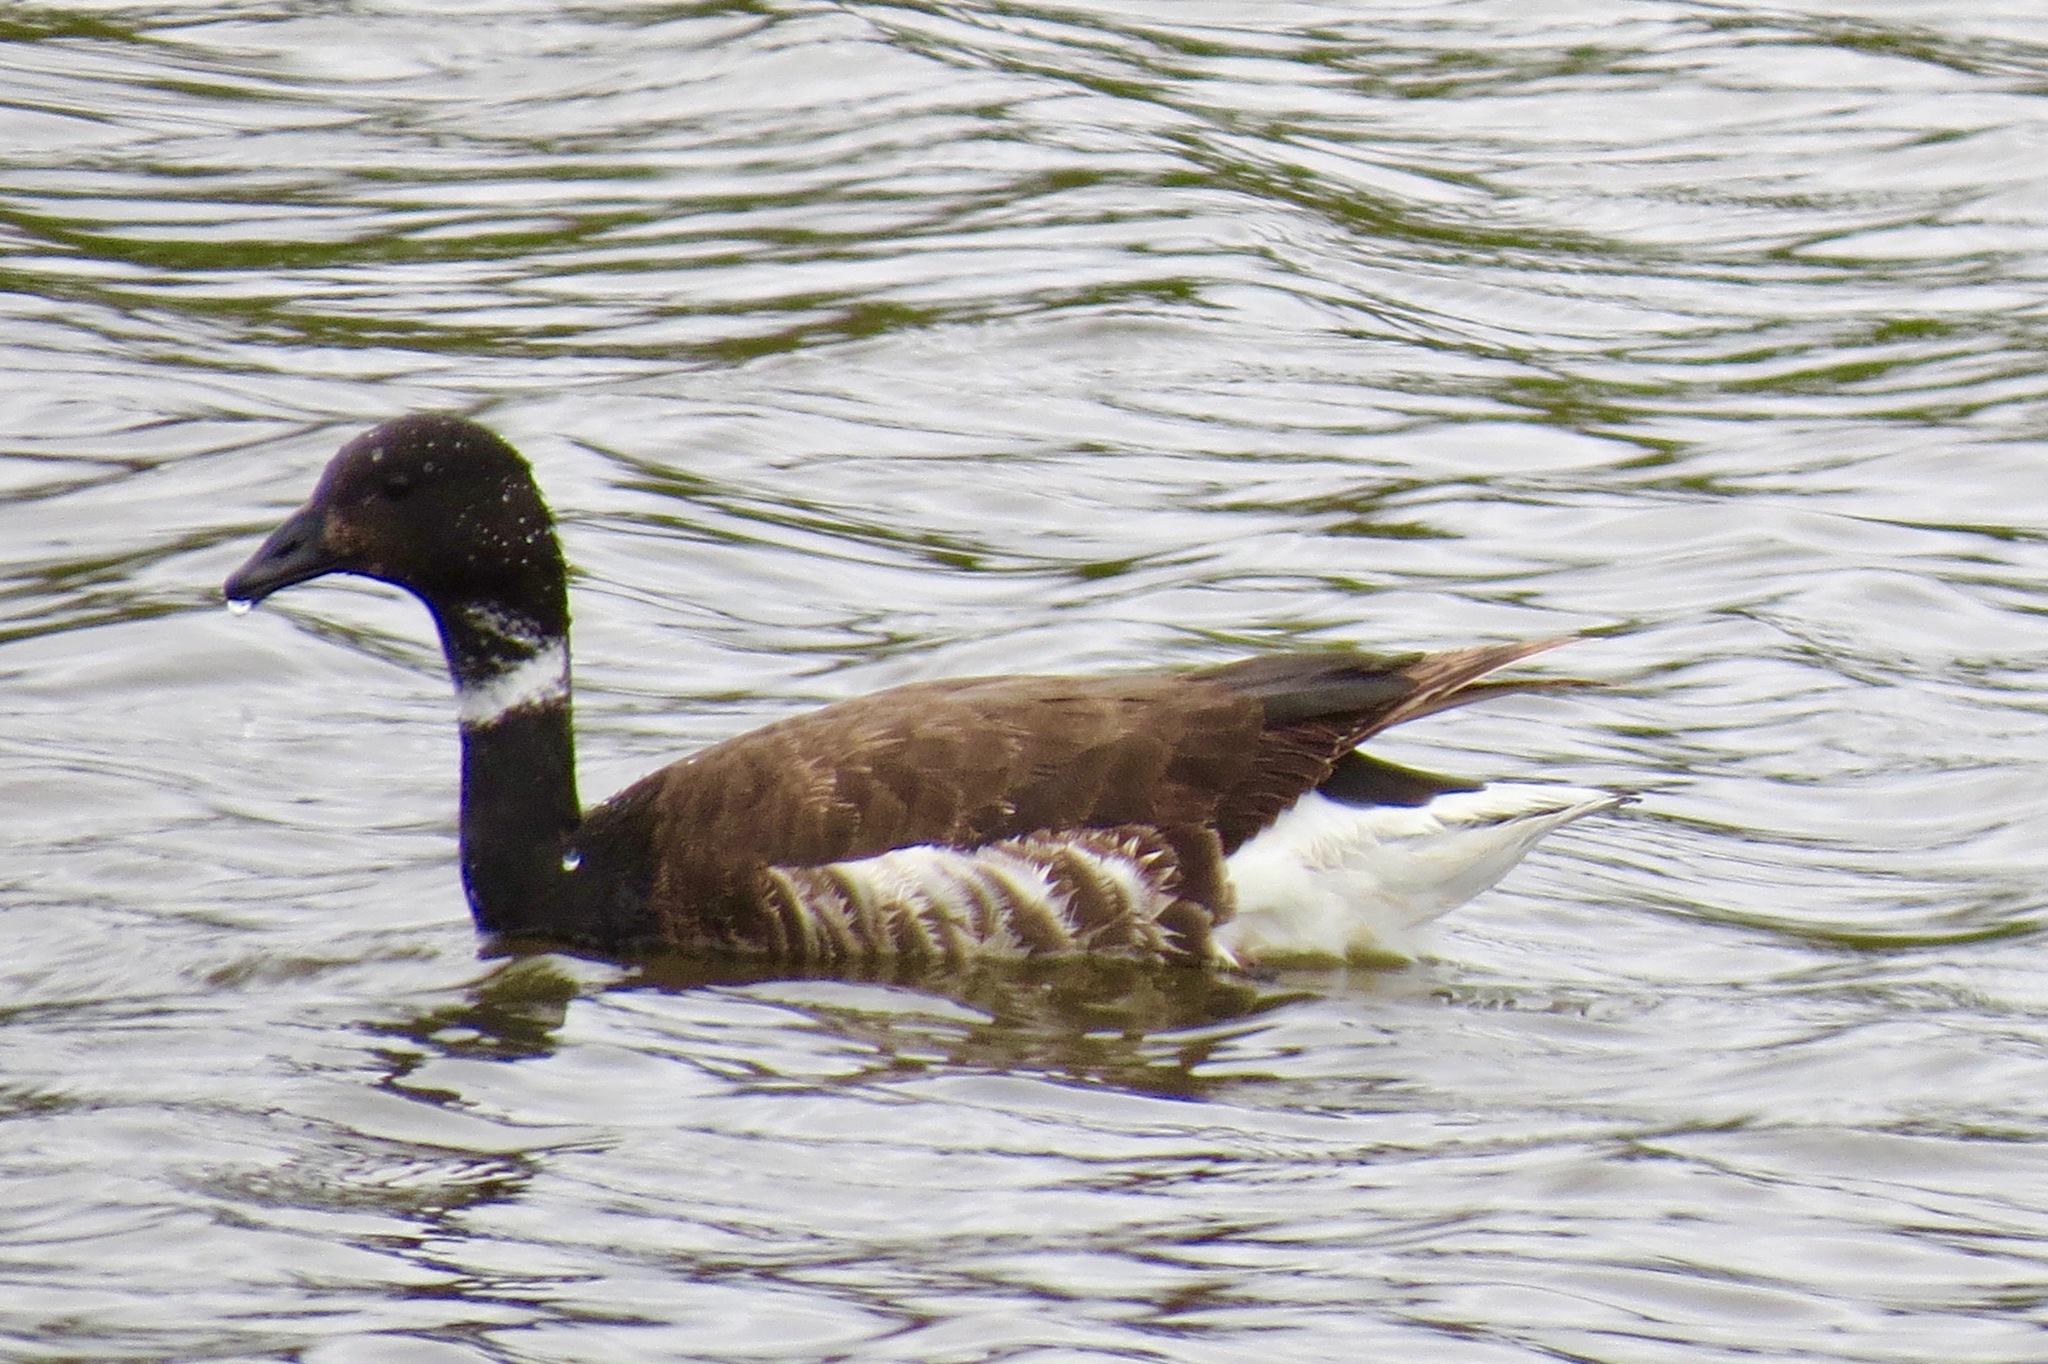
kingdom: Animalia
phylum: Chordata
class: Aves
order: Anseriformes
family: Anatidae
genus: Branta
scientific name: Branta bernicla
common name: Brant goose
